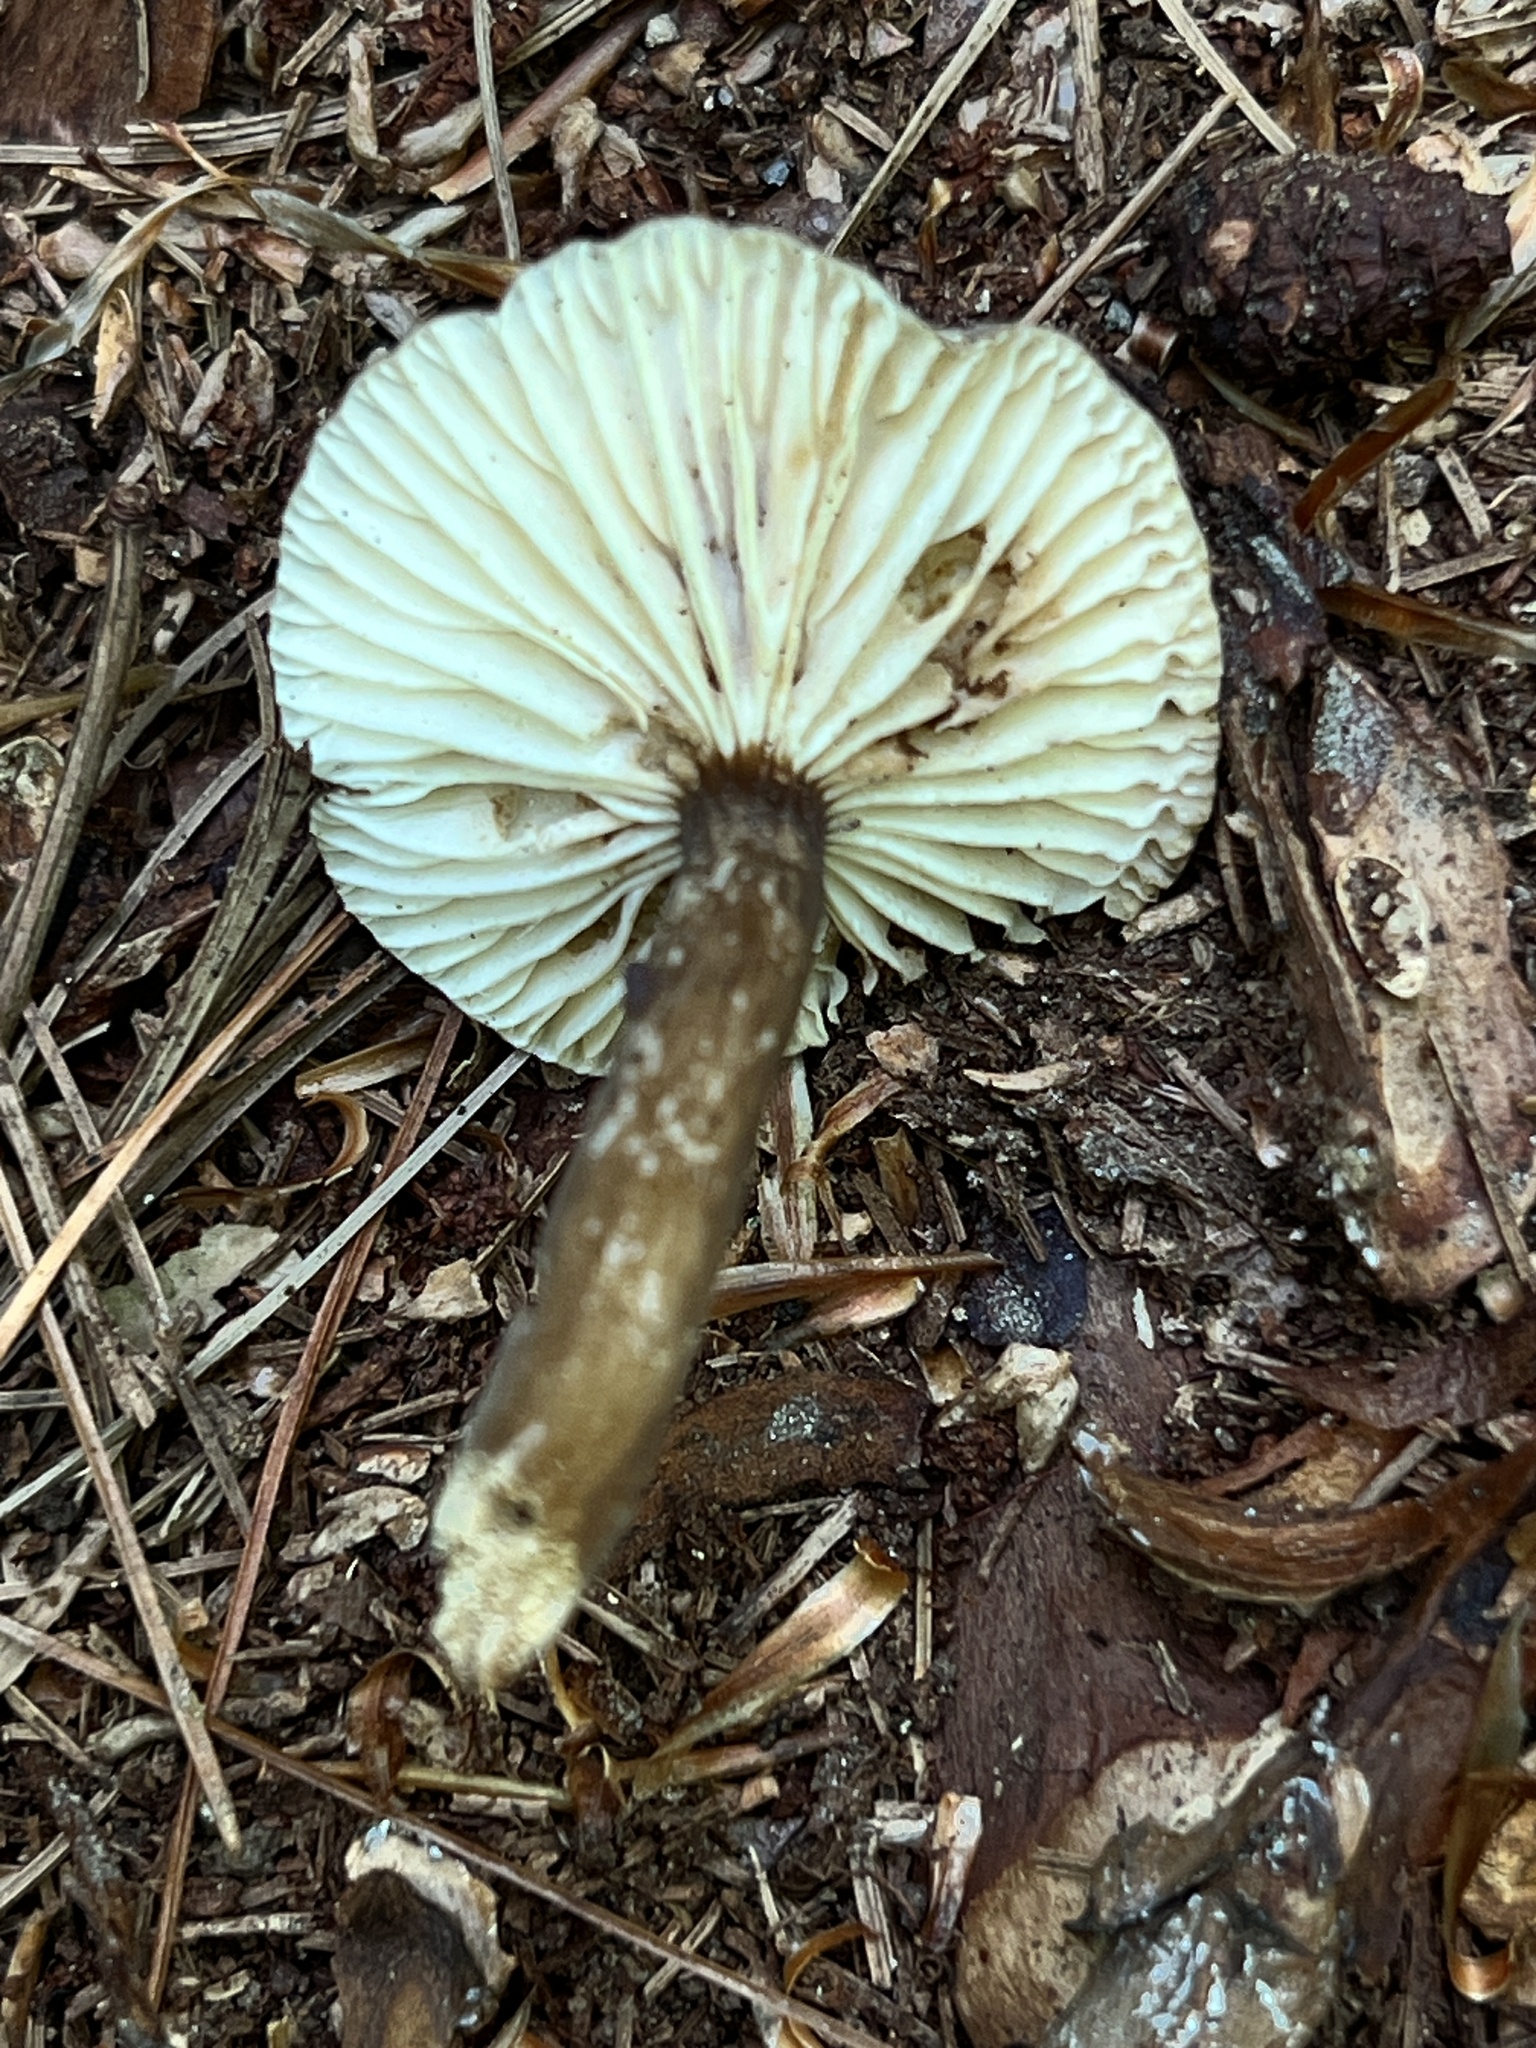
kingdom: Fungi
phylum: Basidiomycota
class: Agaricomycetes
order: Russulales
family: Russulaceae
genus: Lactarius
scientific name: Lactarius gerardii
